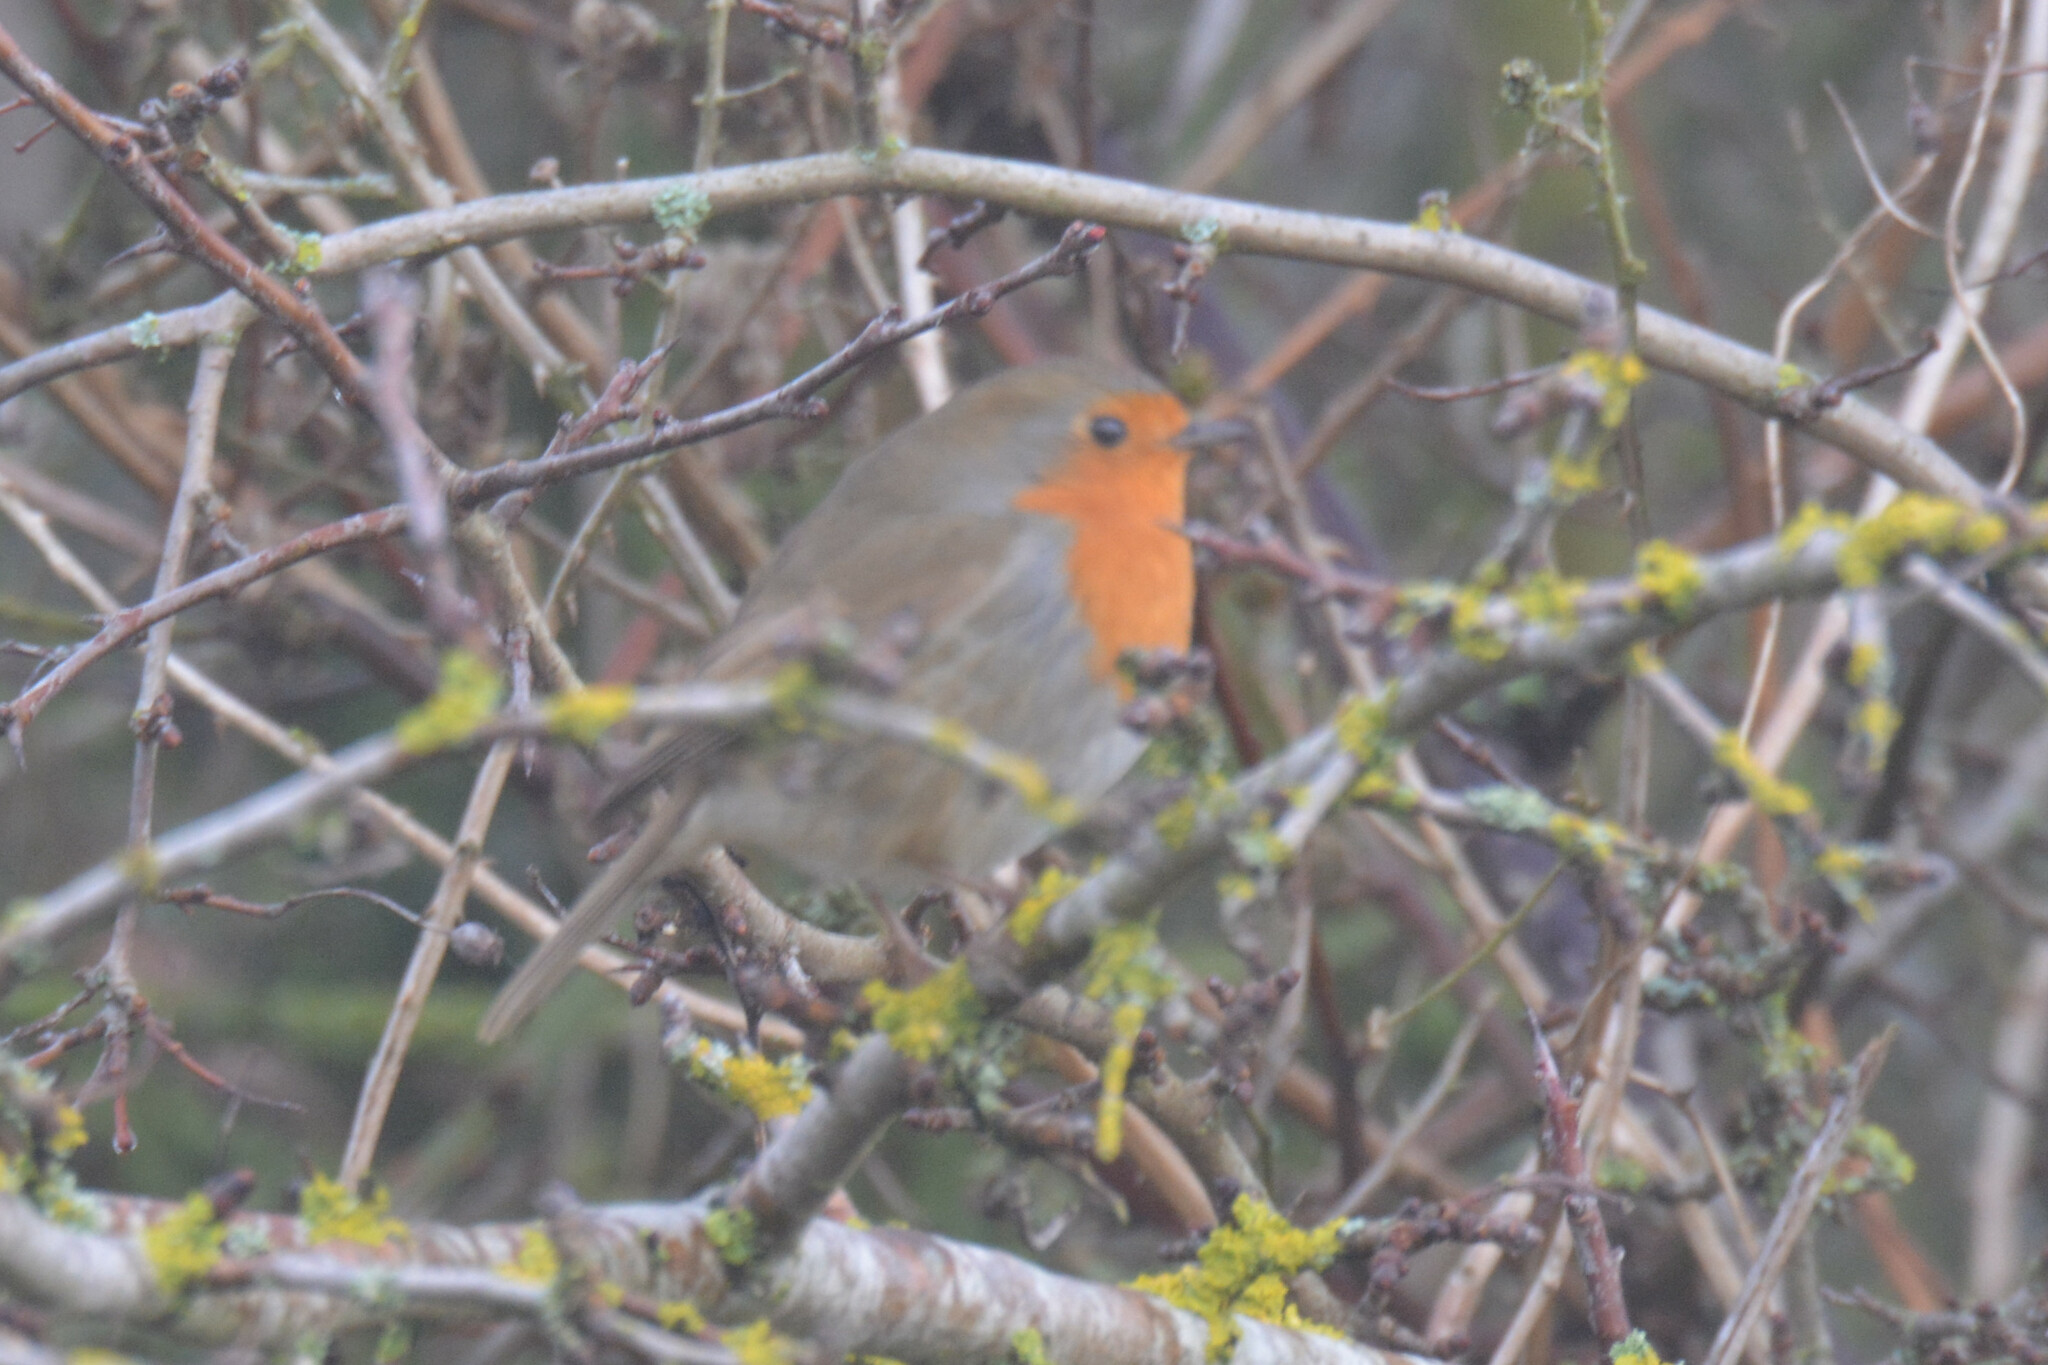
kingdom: Animalia
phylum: Chordata
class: Aves
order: Passeriformes
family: Muscicapidae
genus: Erithacus
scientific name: Erithacus rubecula
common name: European robin
